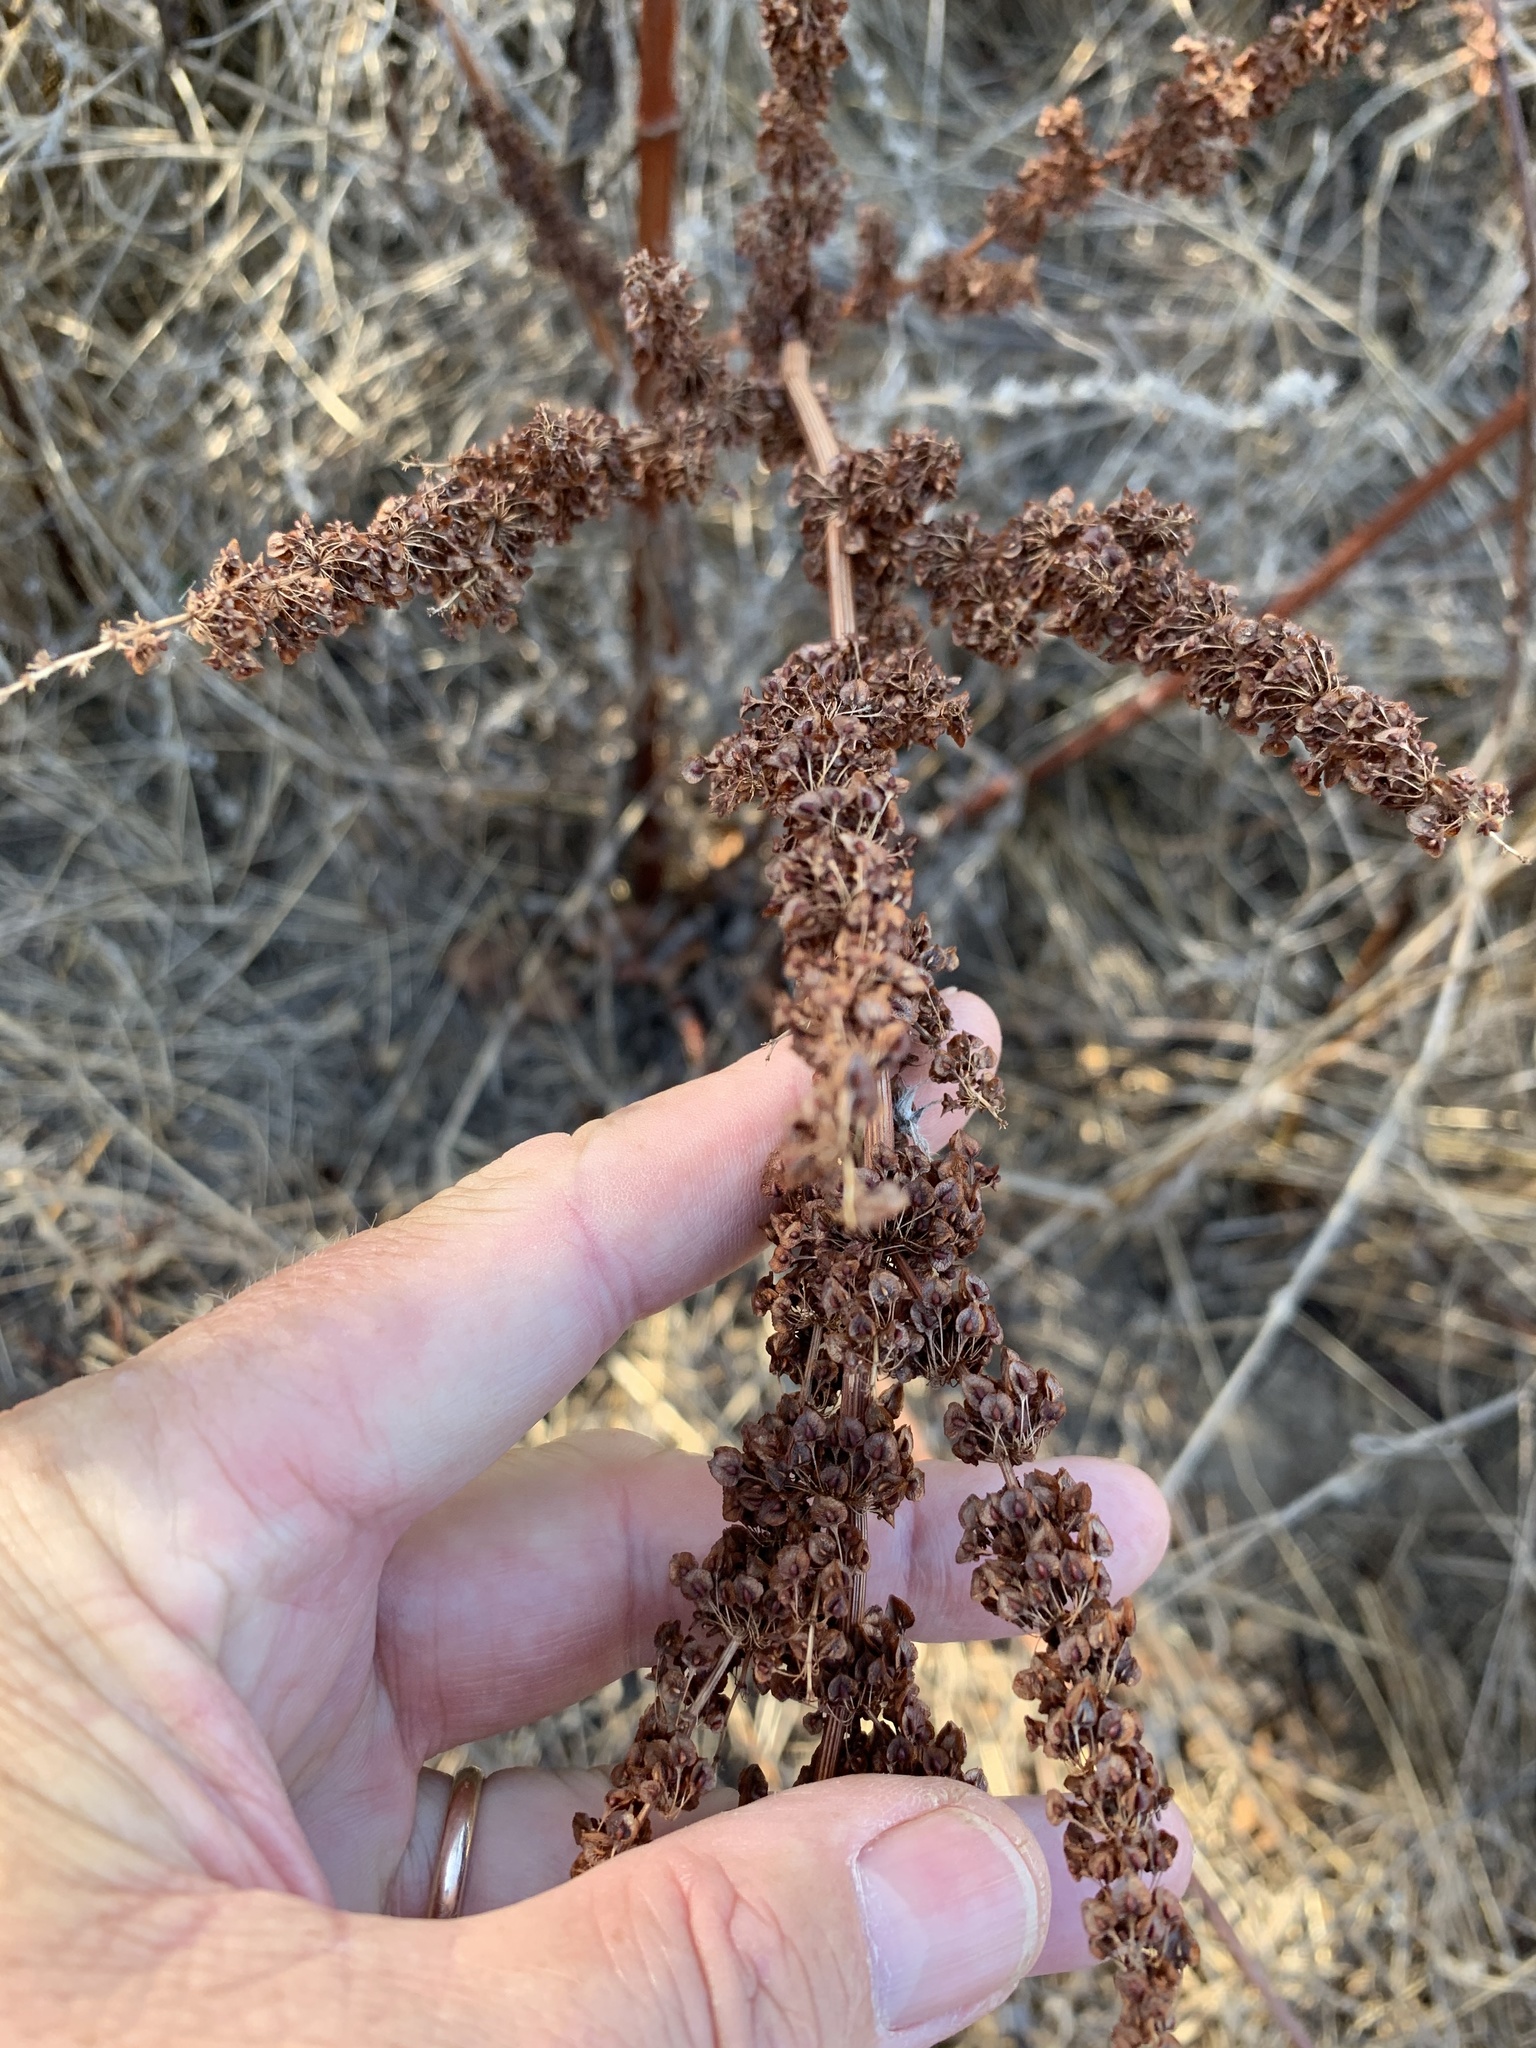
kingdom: Plantae
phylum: Tracheophyta
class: Magnoliopsida
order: Caryophyllales
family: Polygonaceae
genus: Rumex
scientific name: Rumex crispus
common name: Curled dock
